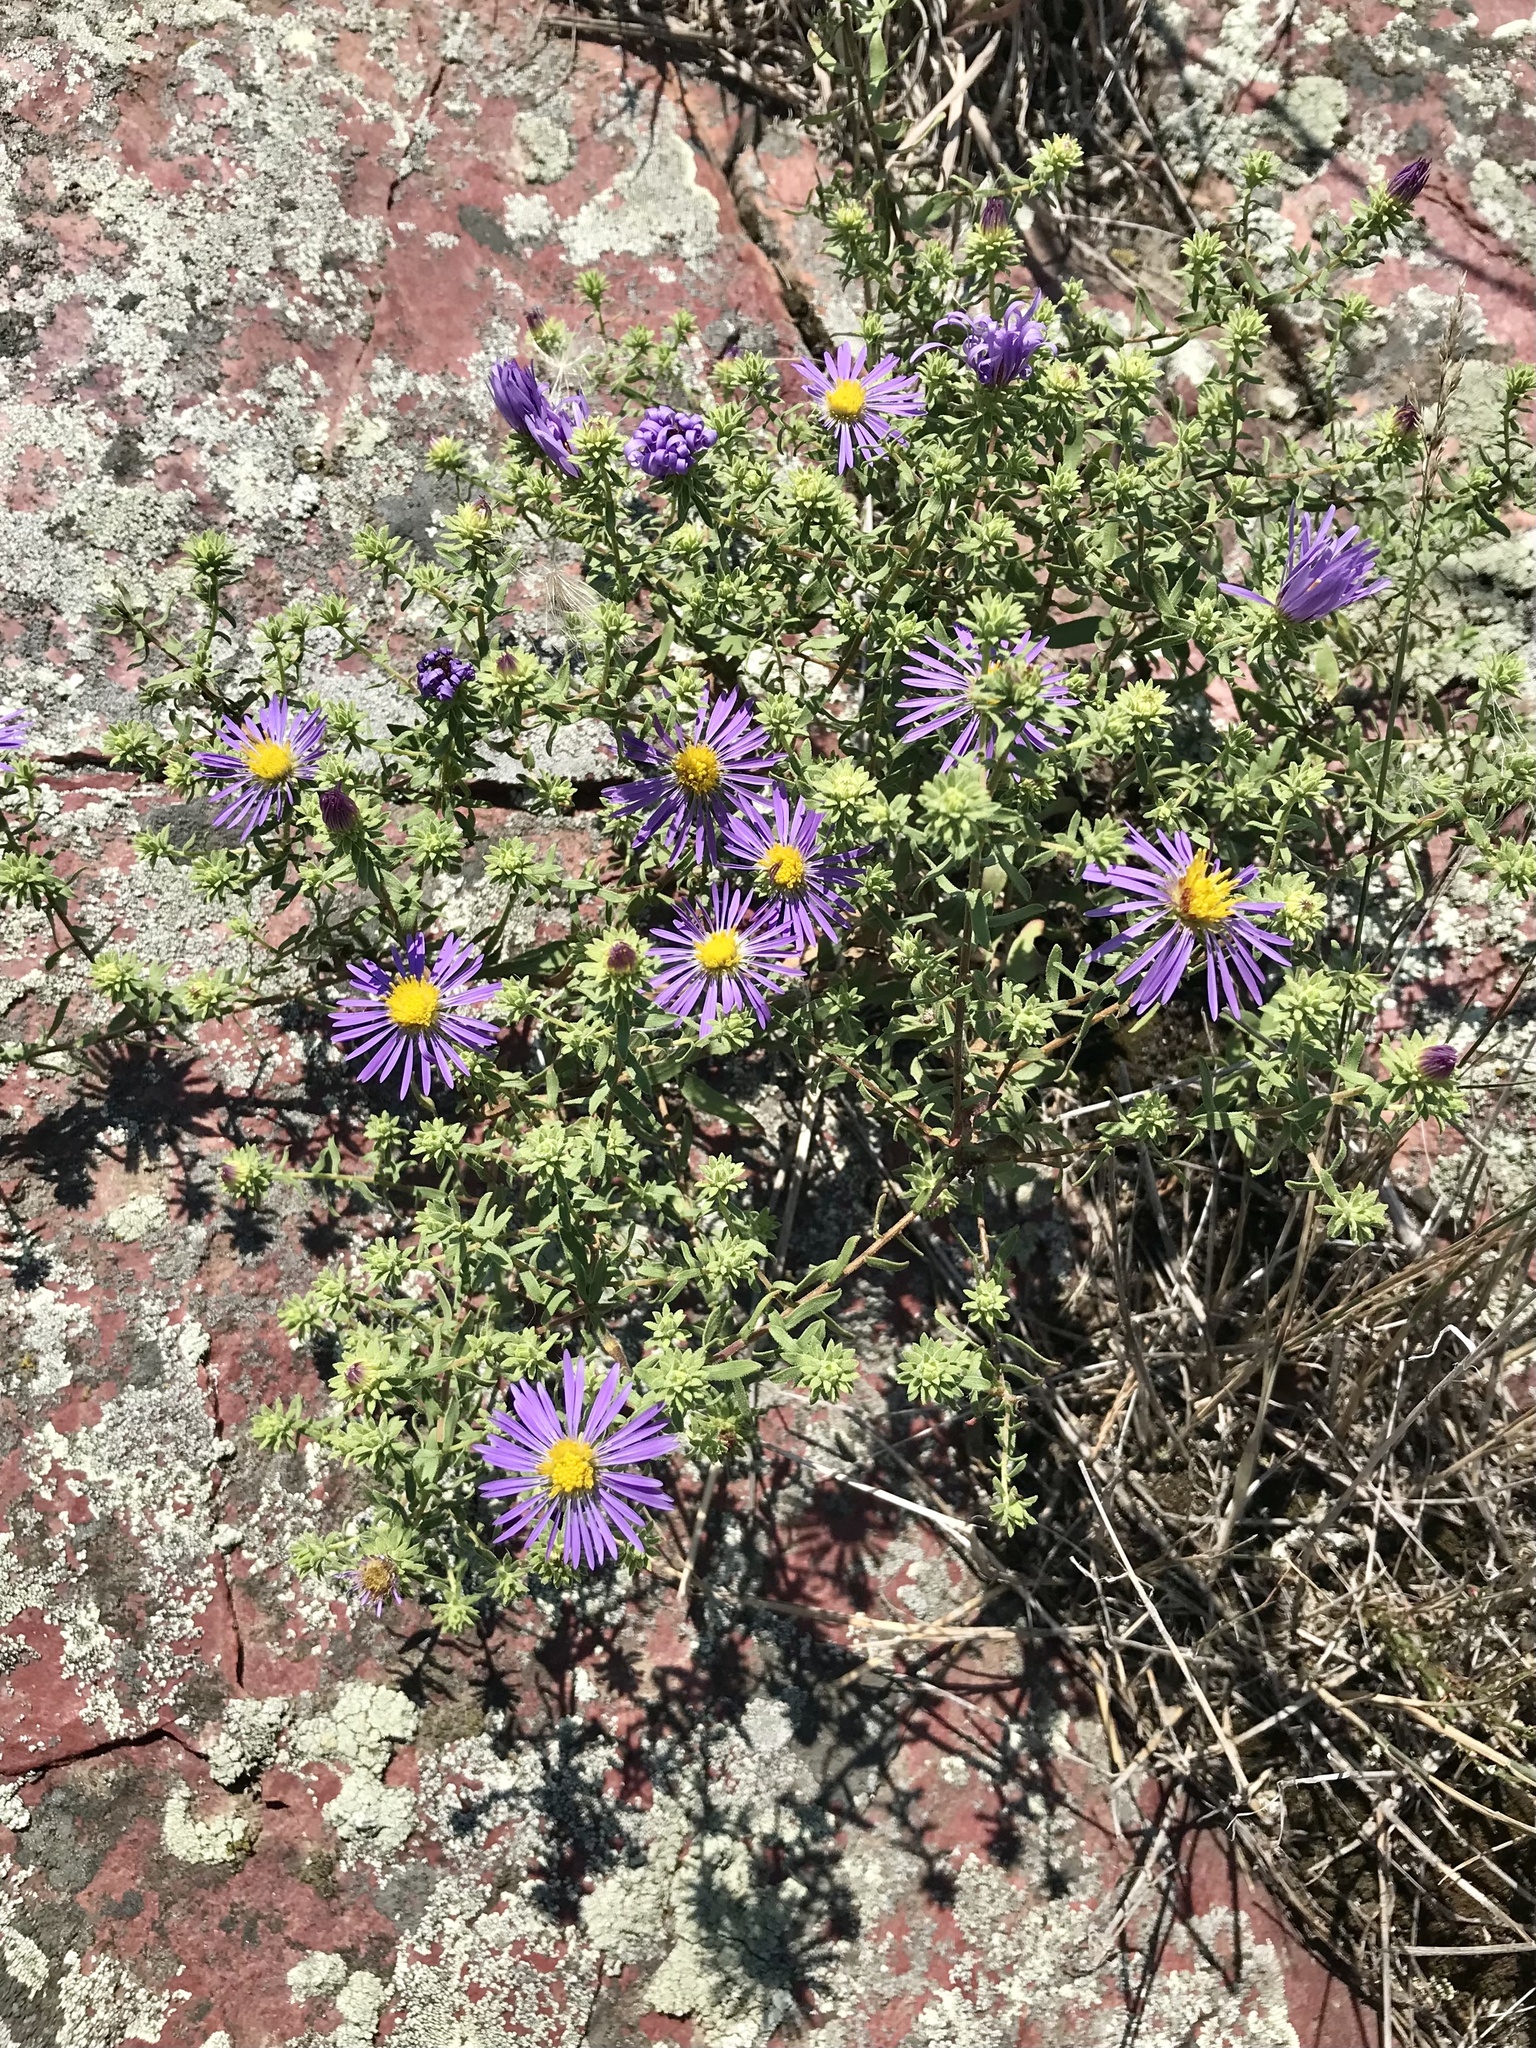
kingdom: Plantae
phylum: Tracheophyta
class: Magnoliopsida
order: Asterales
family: Asteraceae
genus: Symphyotrichum
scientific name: Symphyotrichum oblongifolium
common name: Aromatic aster
